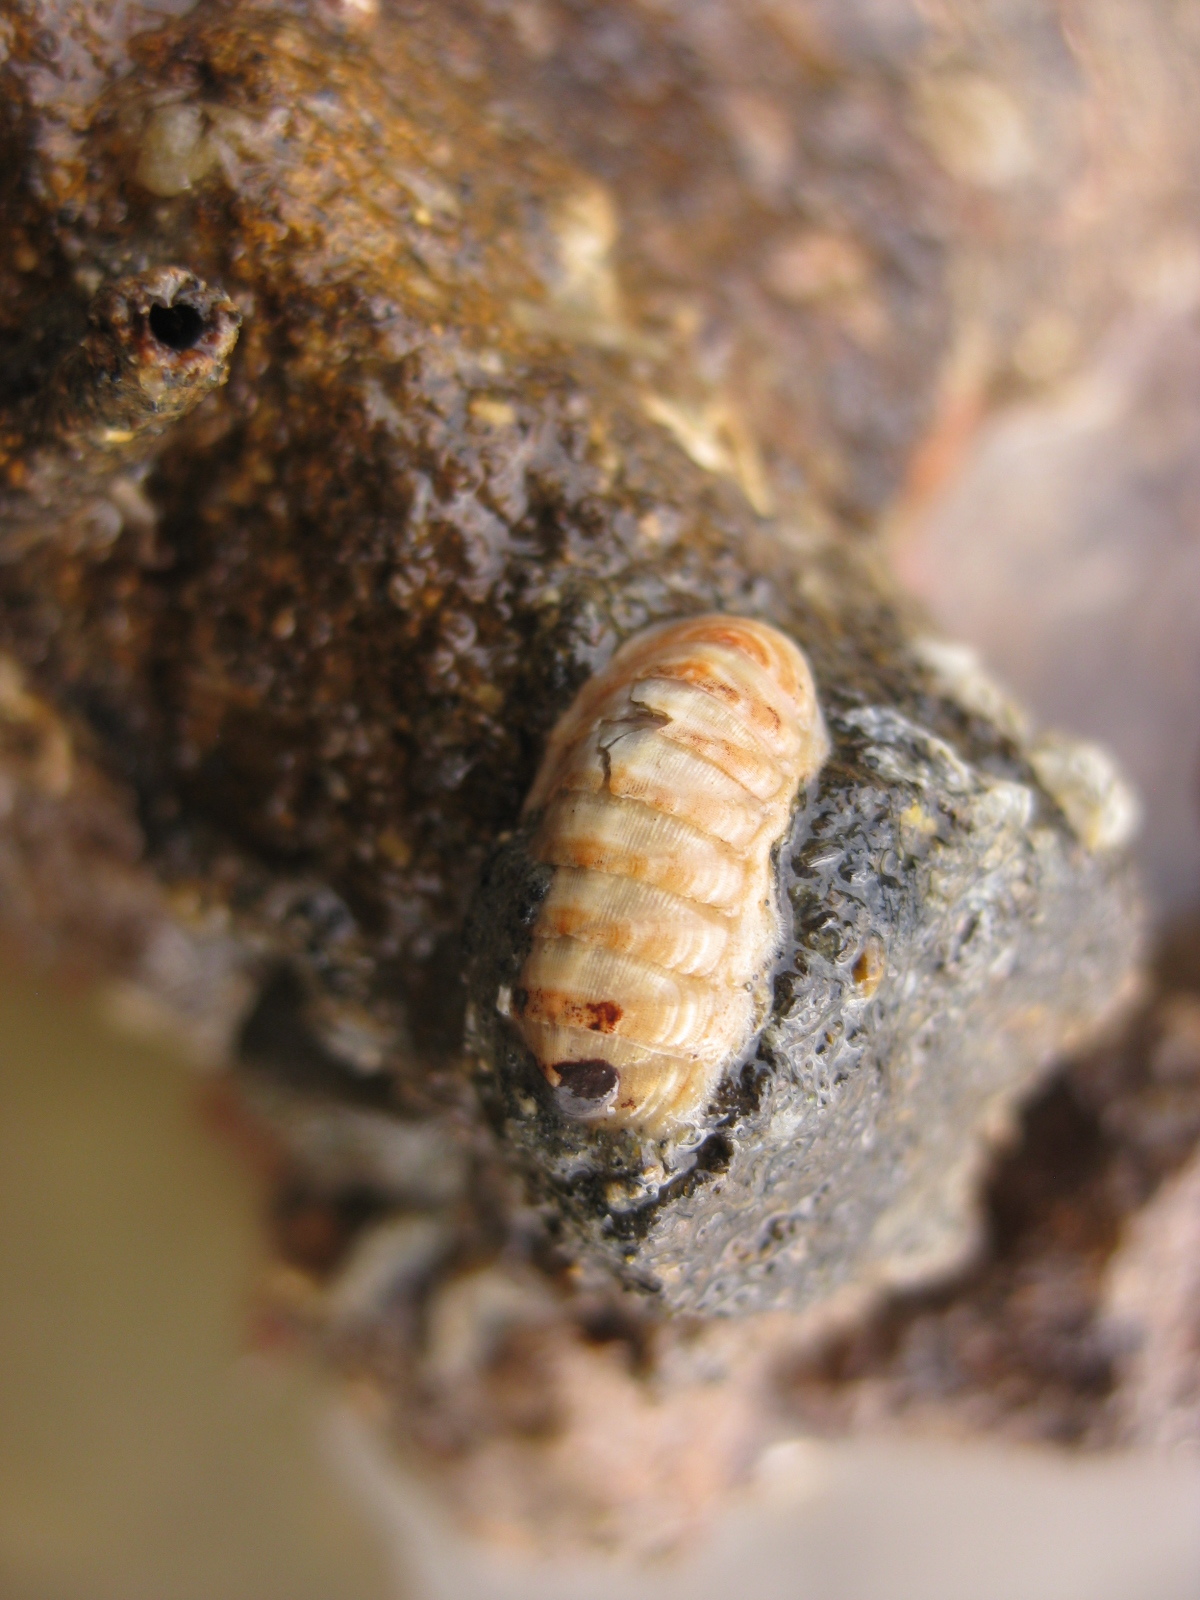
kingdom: Animalia
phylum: Mollusca
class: Polyplacophora
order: Lepidopleurida
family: Leptochitonidae
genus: Leptochiton
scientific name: Leptochiton inquinatus
